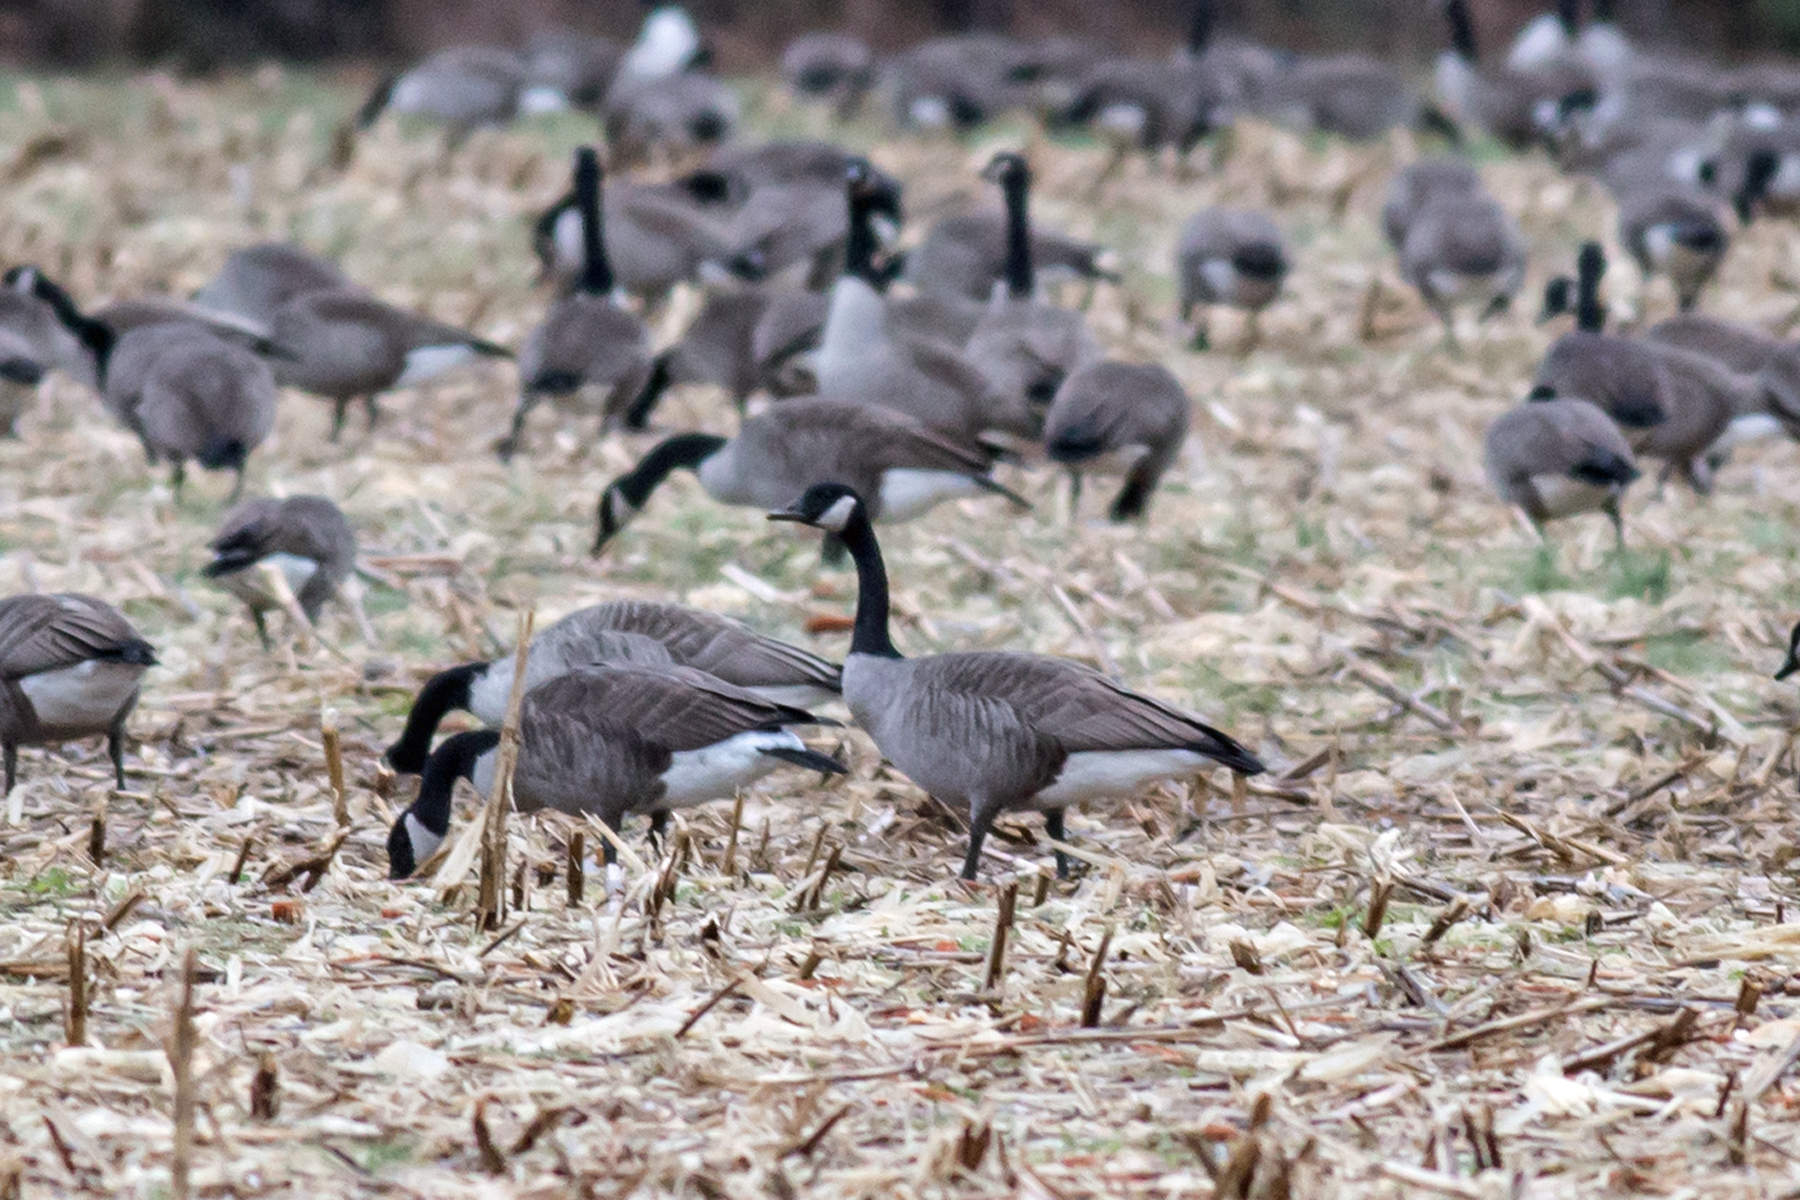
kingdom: Animalia
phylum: Chordata
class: Aves
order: Anseriformes
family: Anatidae
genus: Branta
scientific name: Branta canadensis
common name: Canada goose
